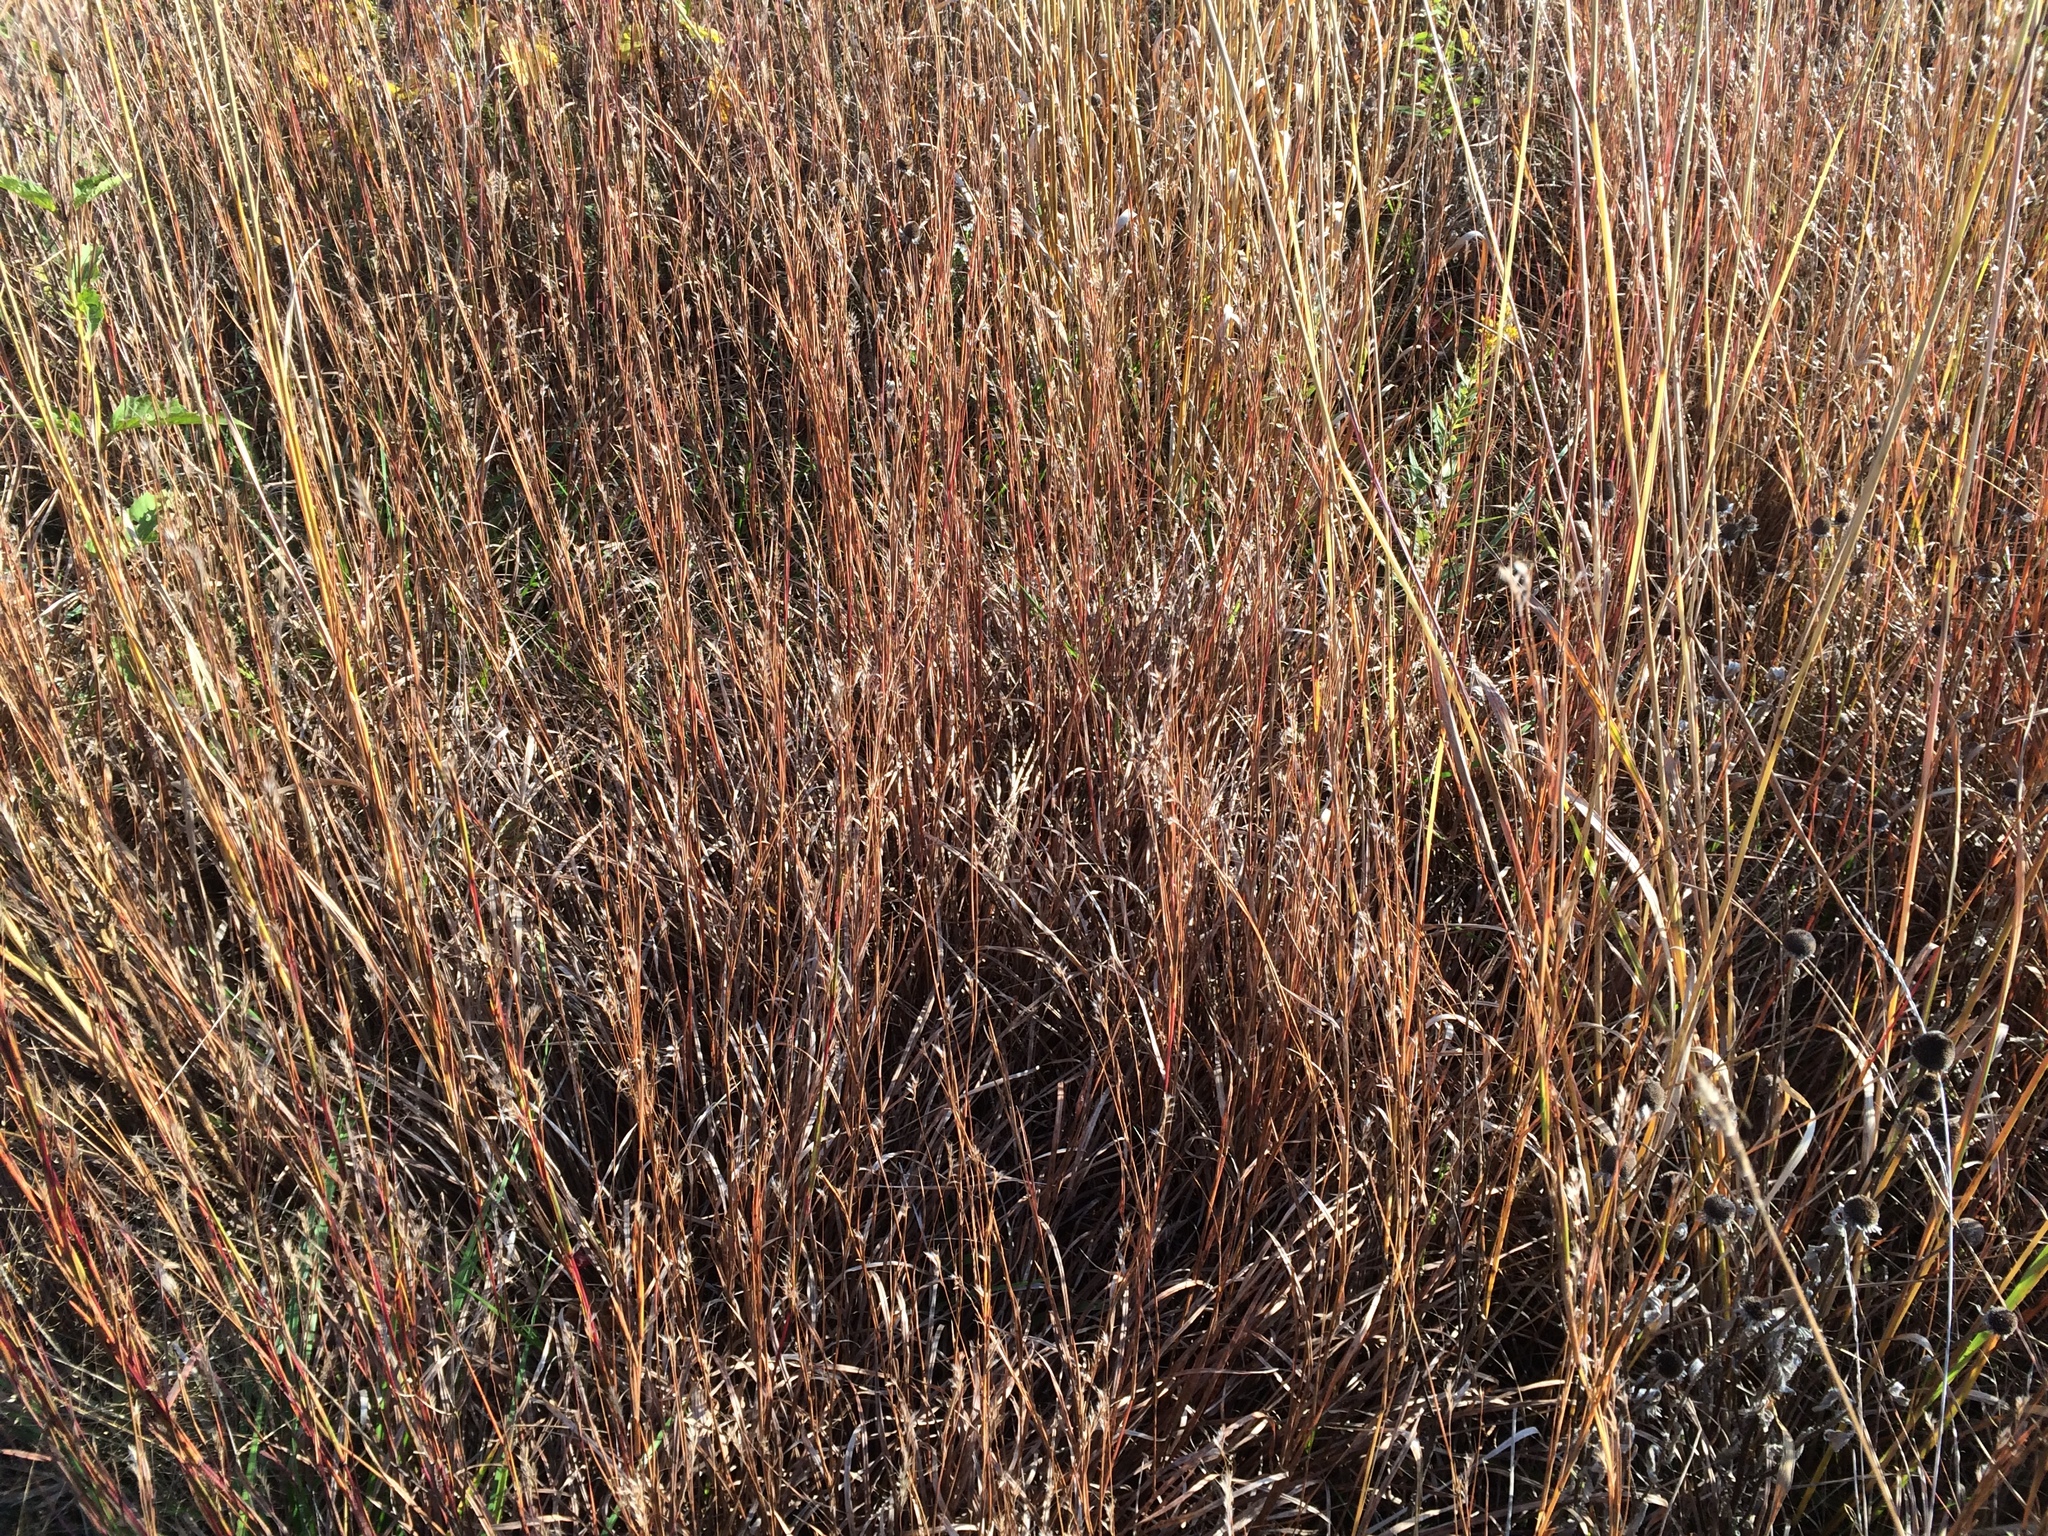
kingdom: Plantae
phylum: Tracheophyta
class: Liliopsida
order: Poales
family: Poaceae
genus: Schizachyrium
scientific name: Schizachyrium scoparium
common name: Little bluestem
